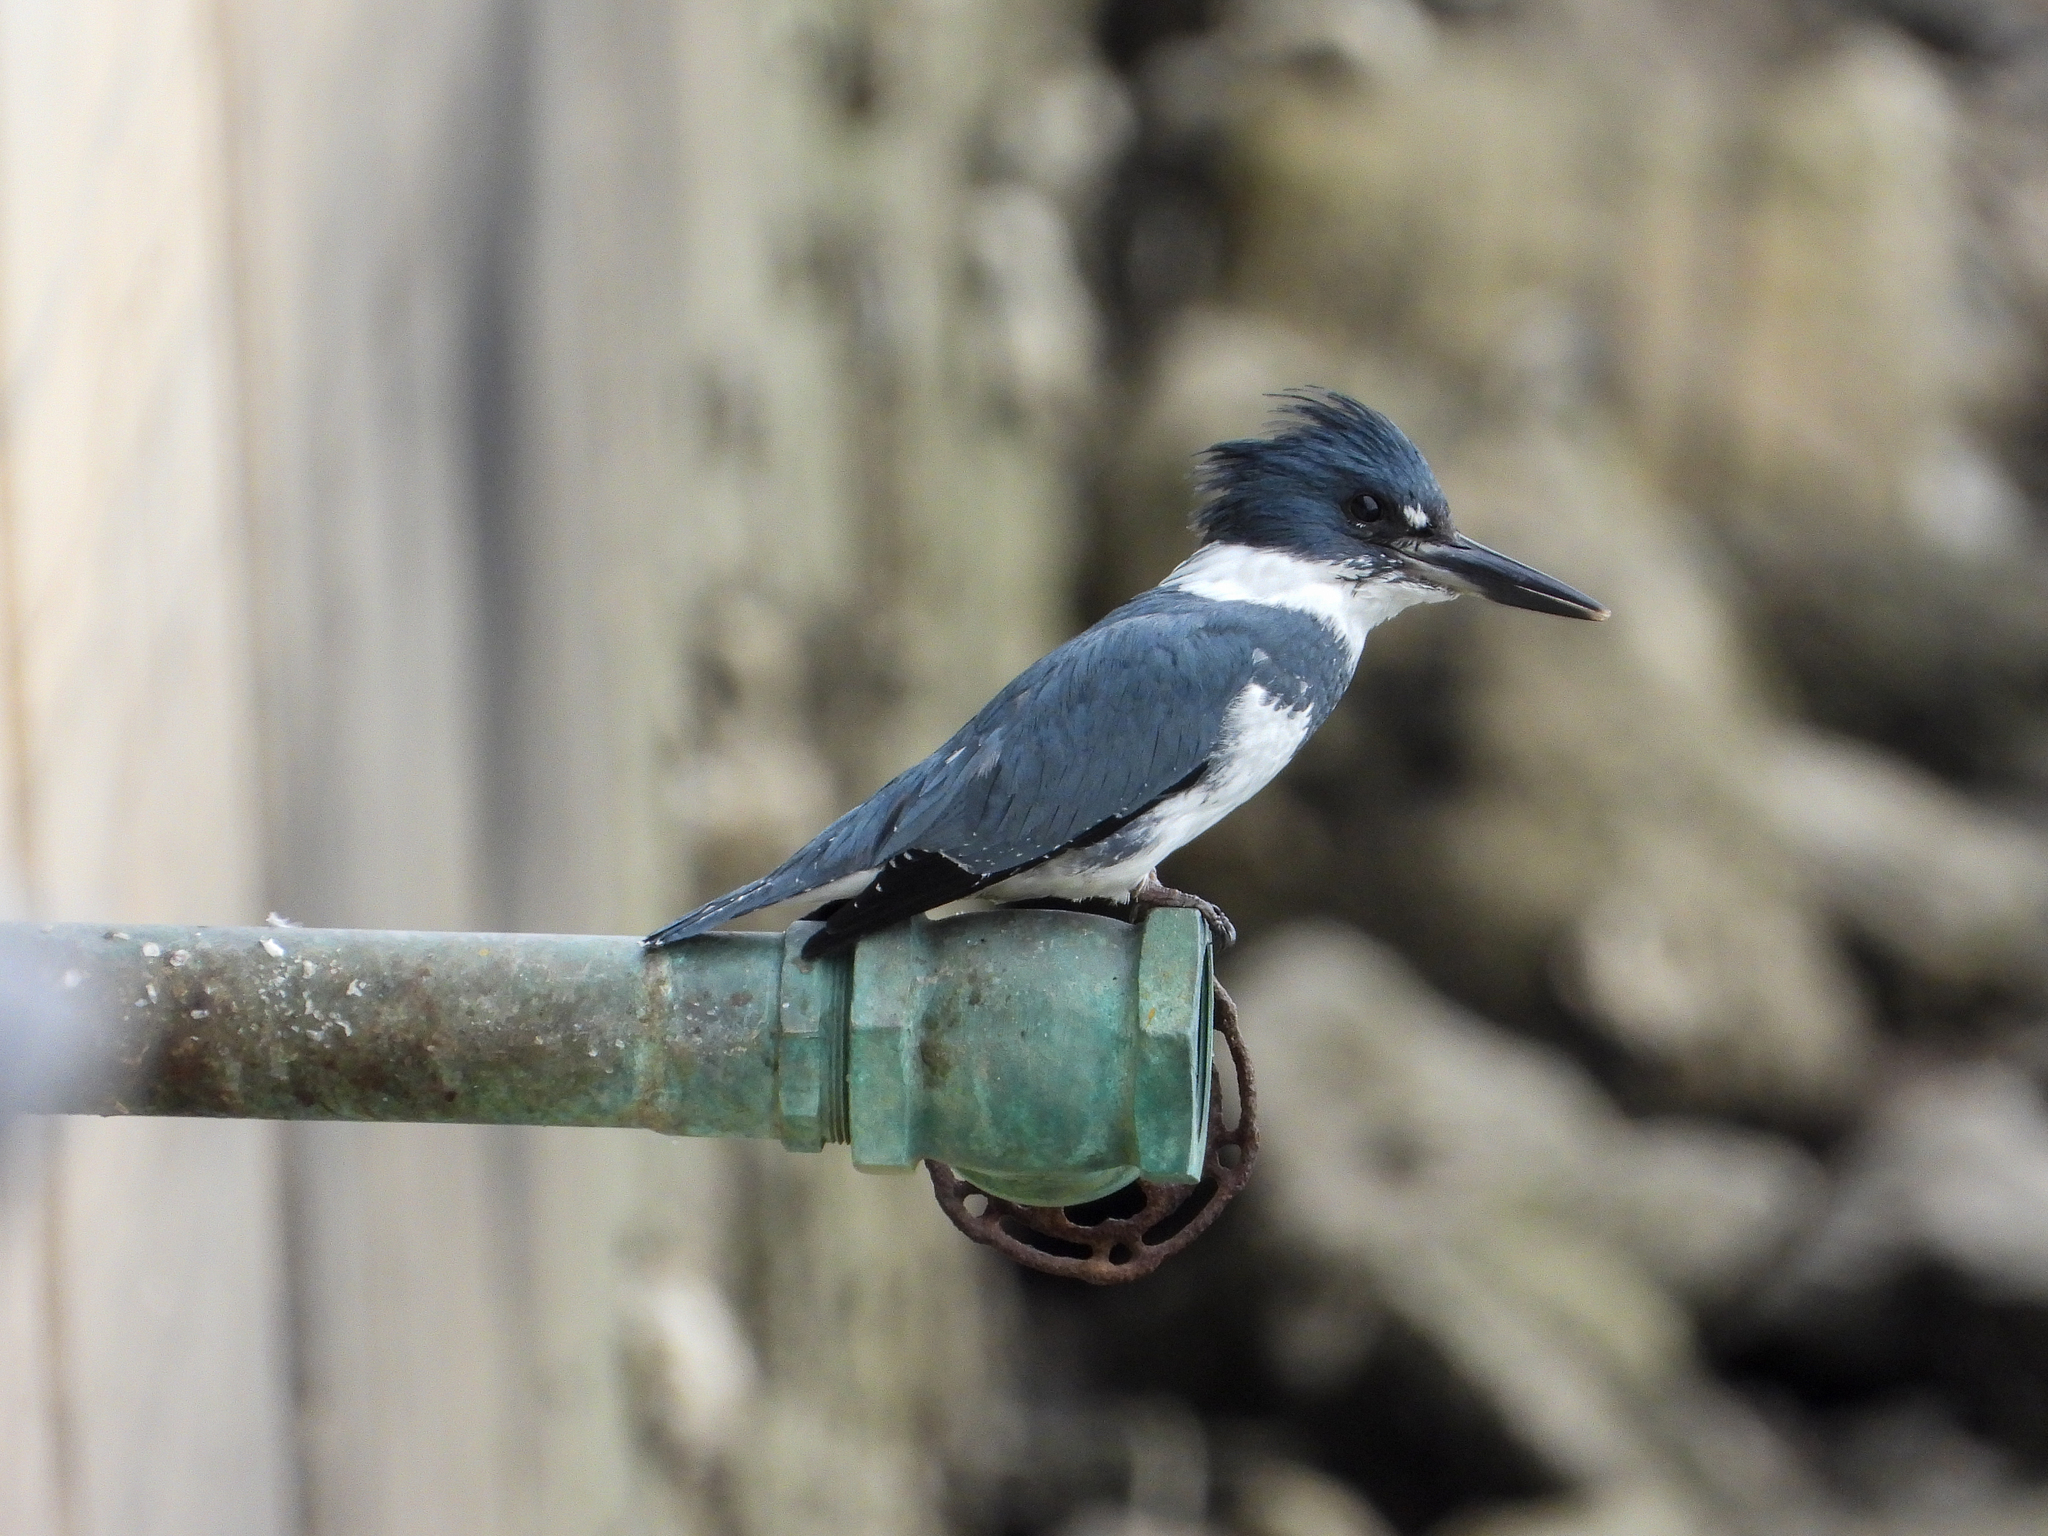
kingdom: Animalia
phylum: Chordata
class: Aves
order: Coraciiformes
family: Alcedinidae
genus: Megaceryle
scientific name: Megaceryle alcyon
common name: Belted kingfisher
